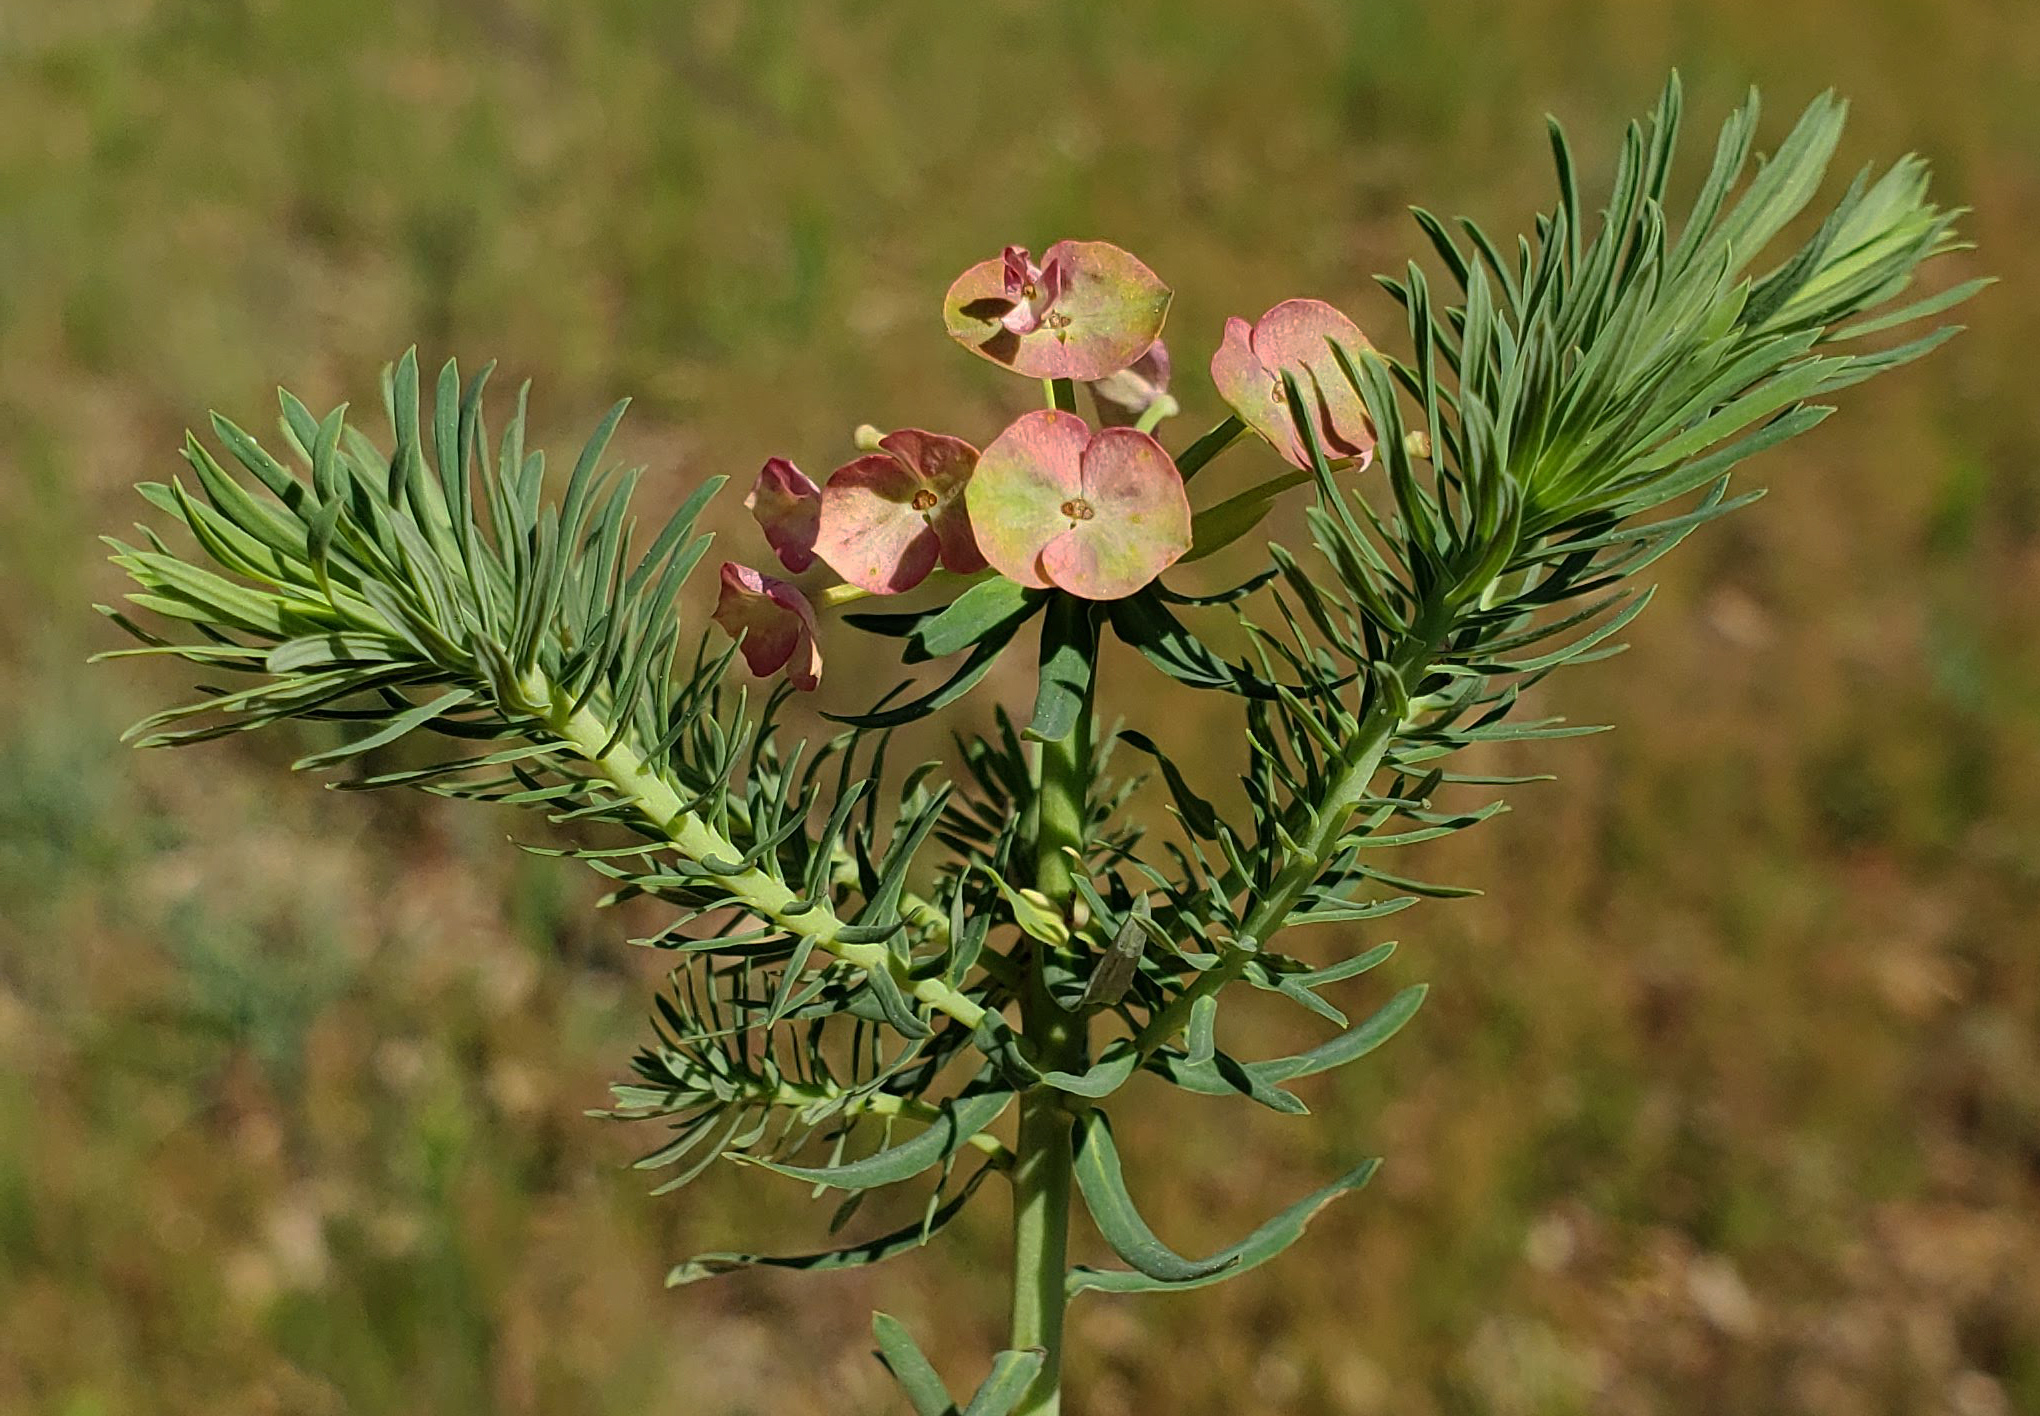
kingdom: Plantae
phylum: Tracheophyta
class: Magnoliopsida
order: Malpighiales
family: Euphorbiaceae
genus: Euphorbia
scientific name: Euphorbia cyparissias
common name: Cypress spurge
